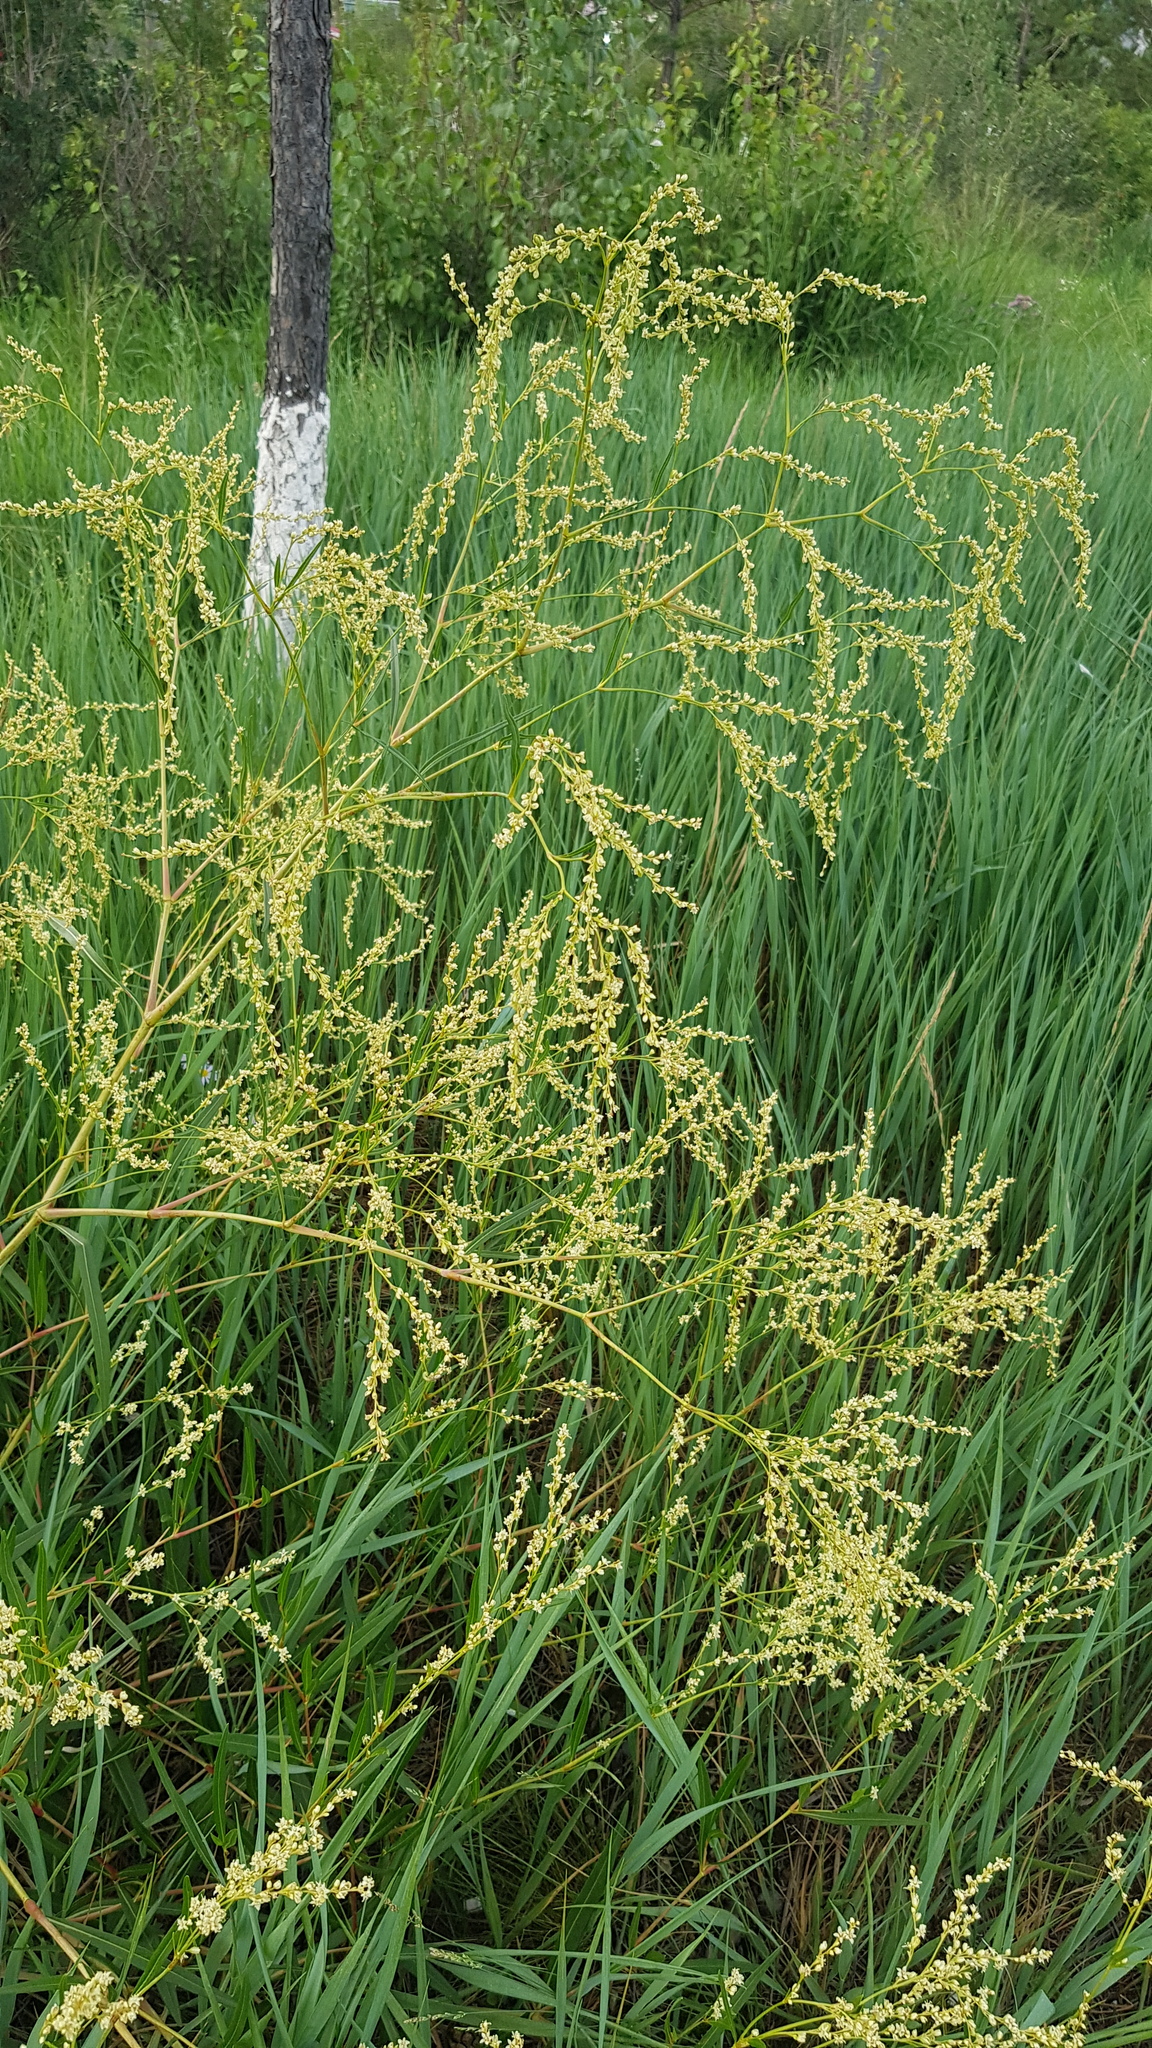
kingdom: Plantae
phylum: Tracheophyta
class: Magnoliopsida
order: Caryophyllales
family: Polygonaceae
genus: Koenigia
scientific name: Koenigia divaricata
